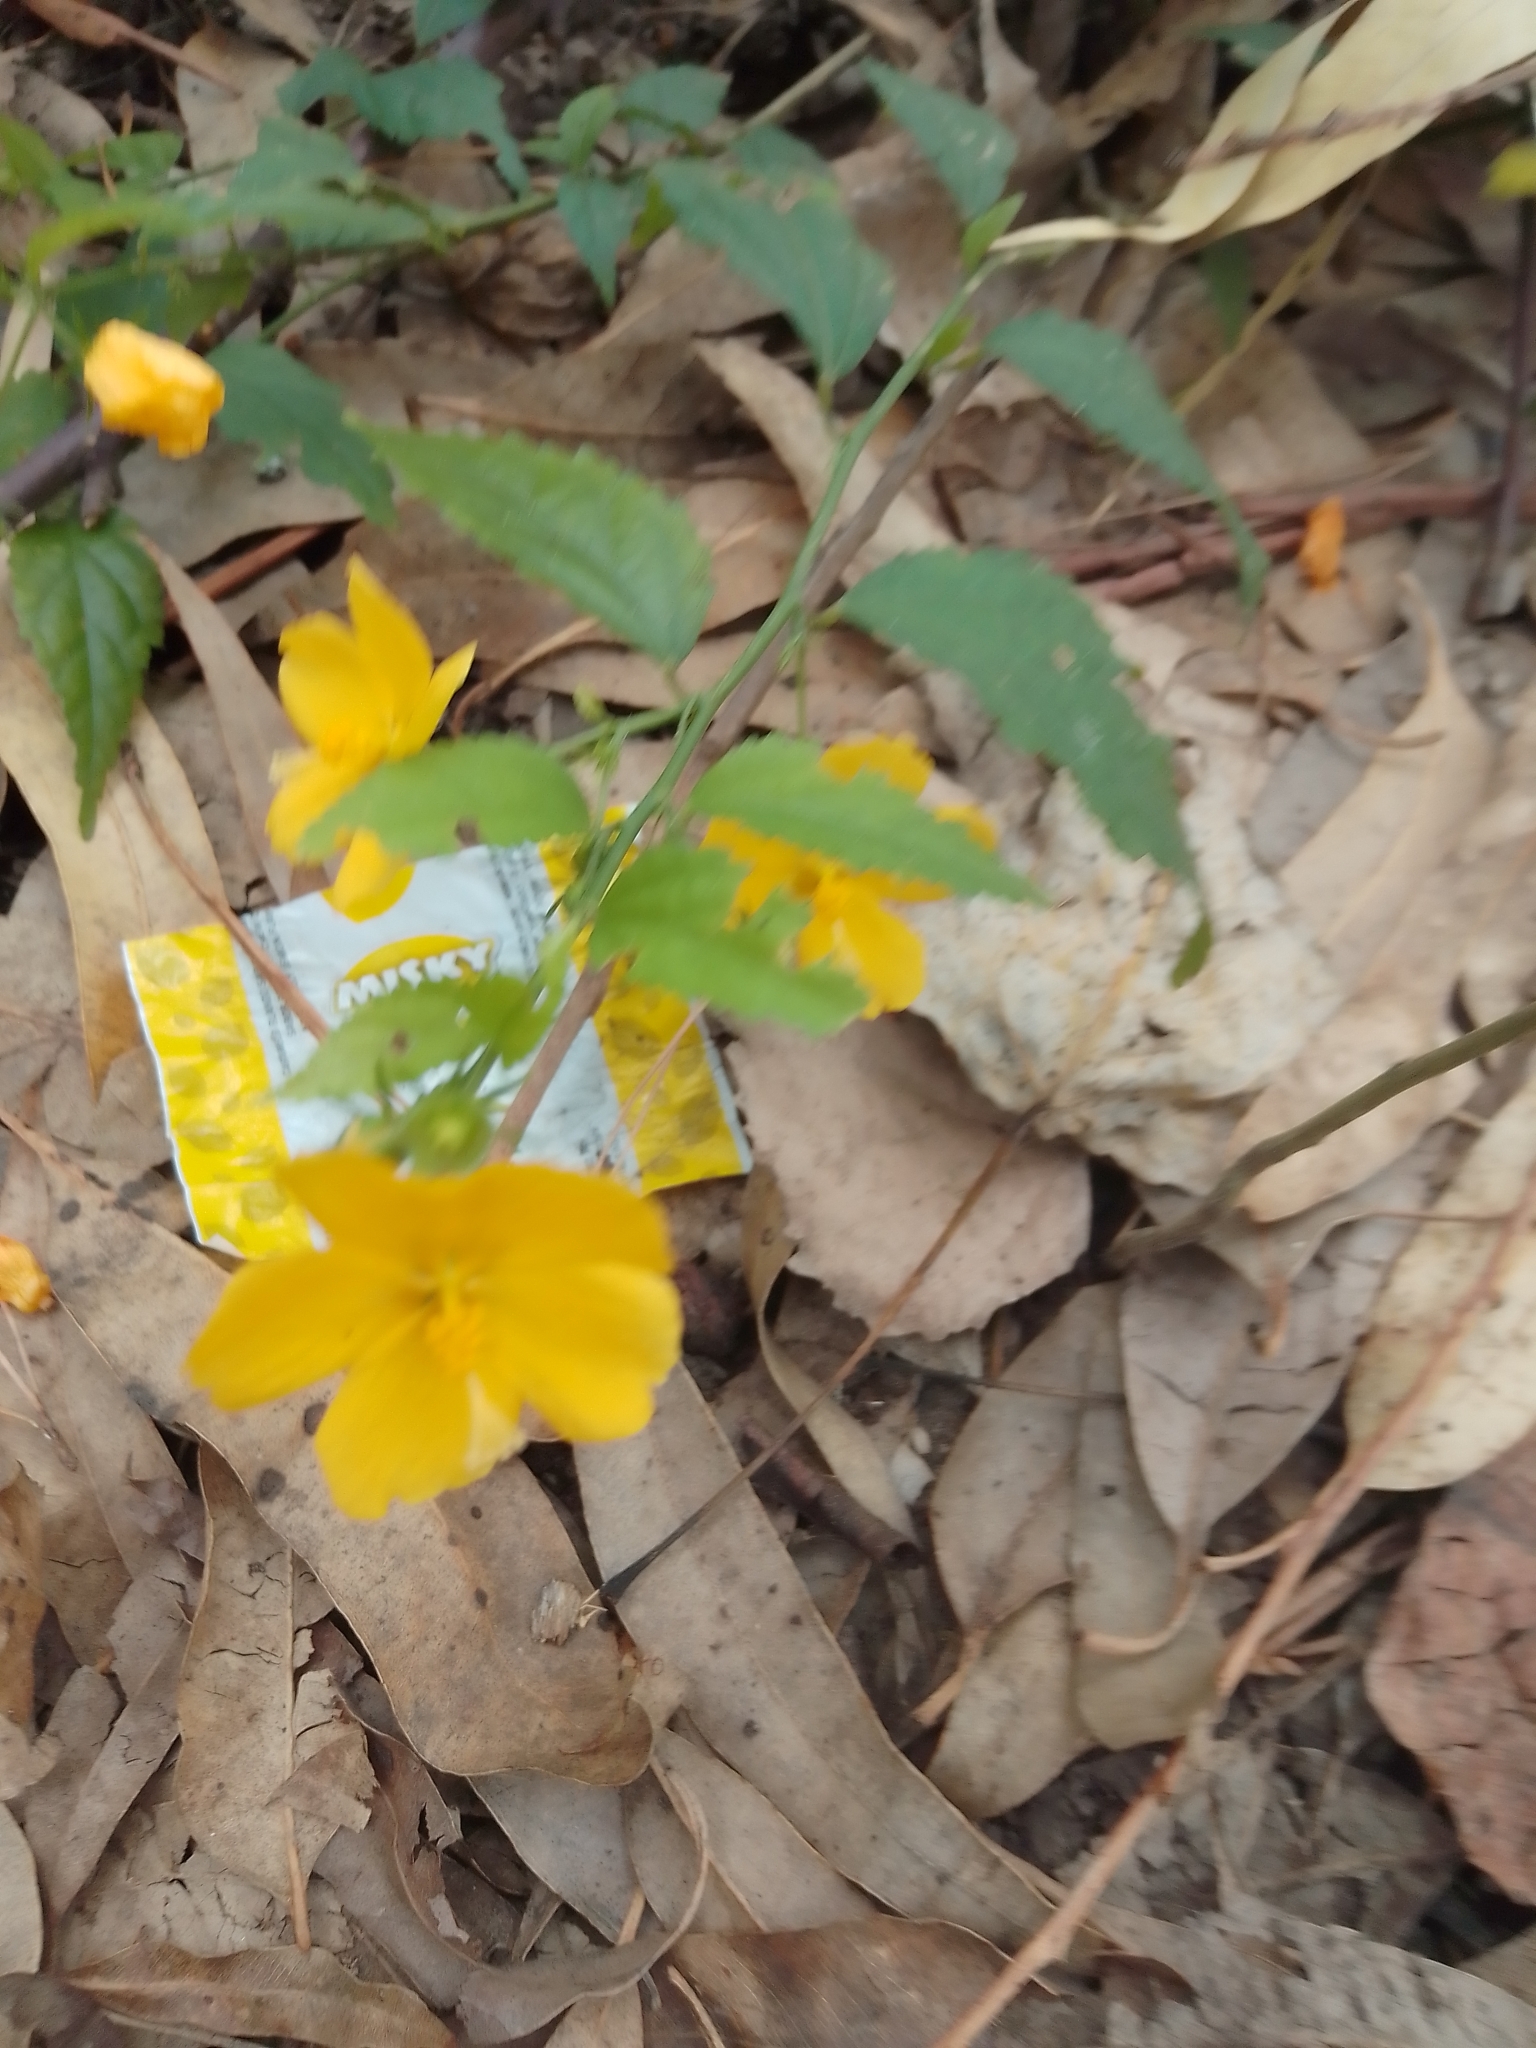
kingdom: Plantae
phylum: Tracheophyta
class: Magnoliopsida
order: Malvales
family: Malvaceae
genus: Pavonia
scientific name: Pavonia sepium
